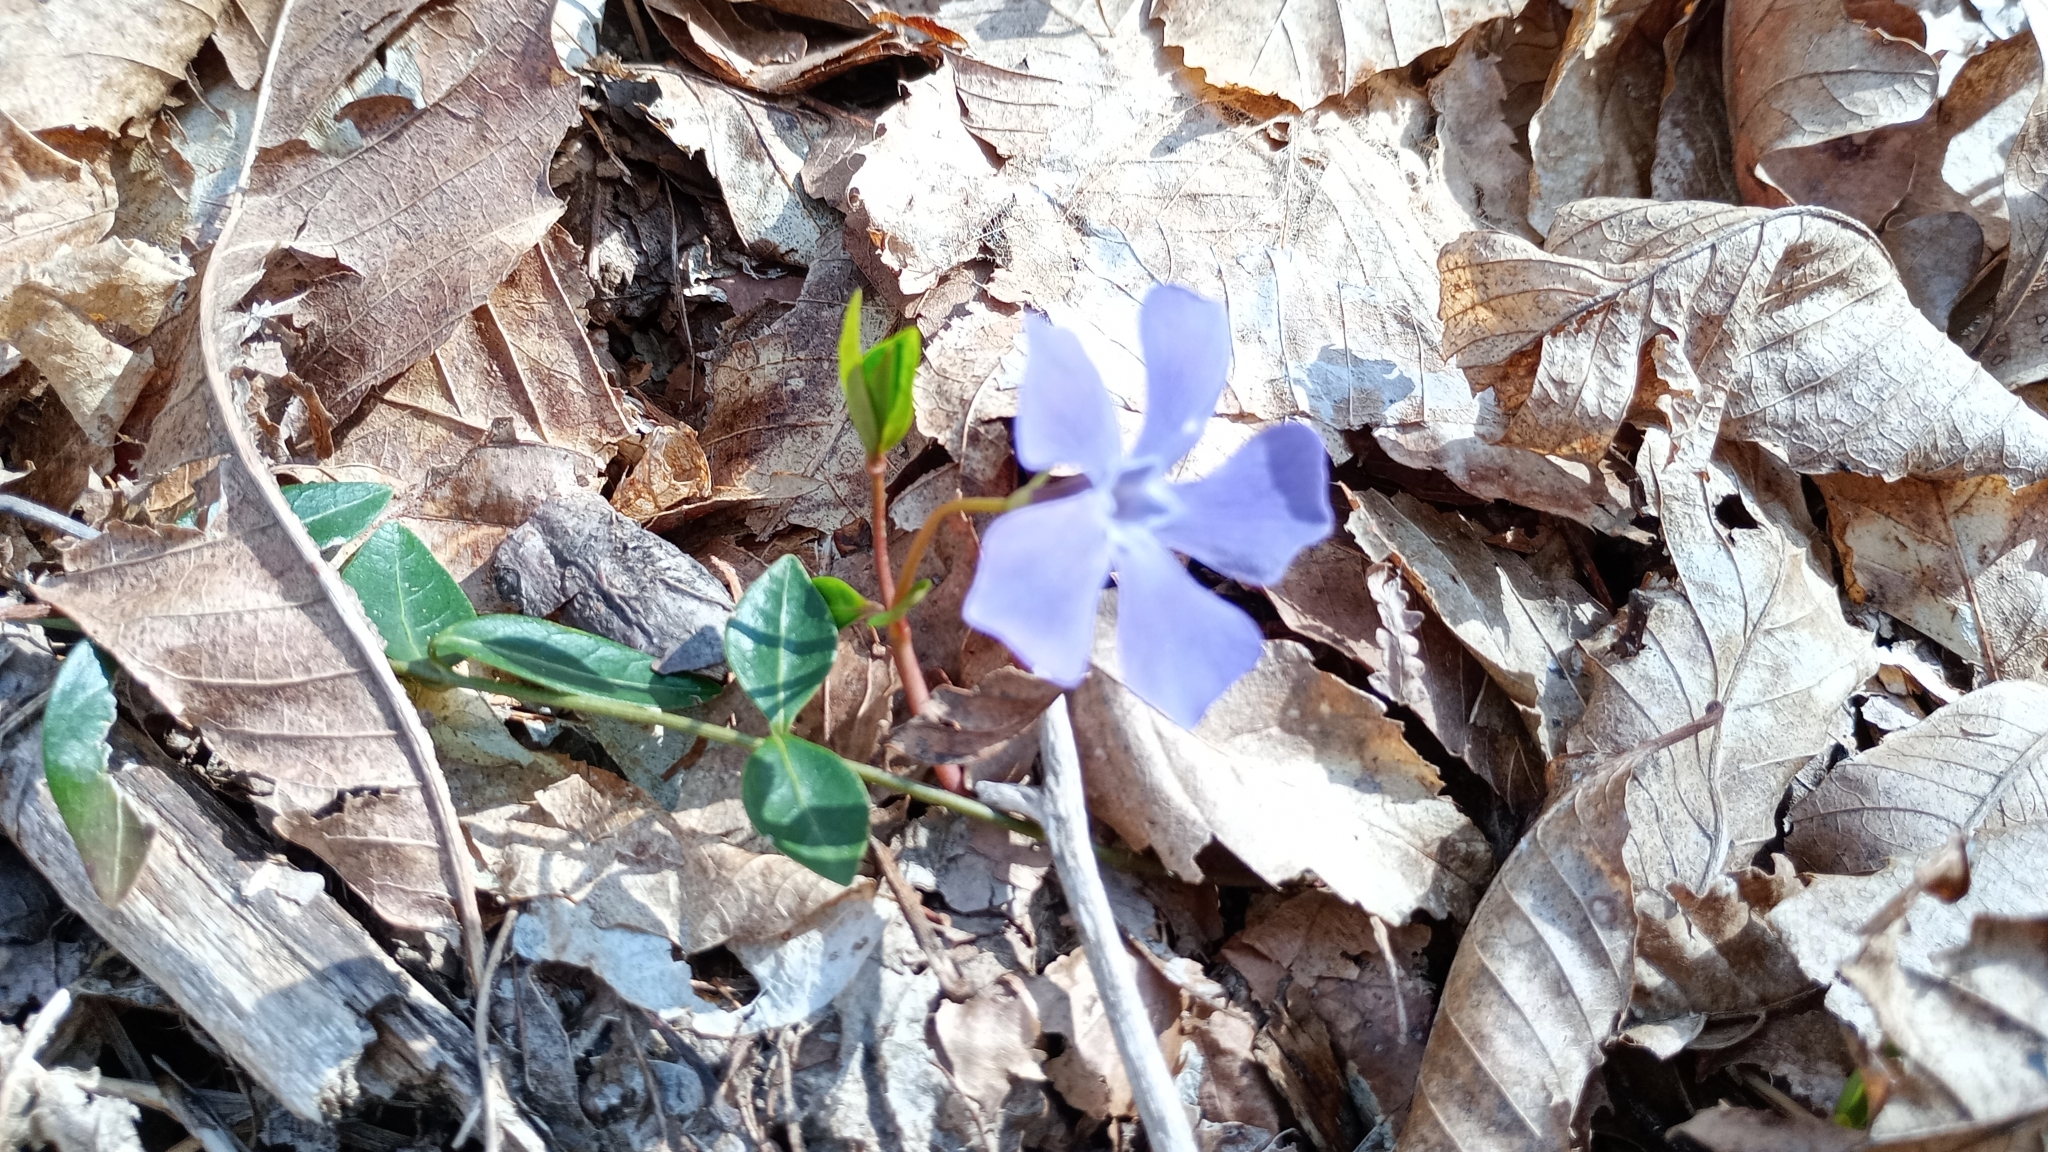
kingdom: Plantae
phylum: Tracheophyta
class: Magnoliopsida
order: Gentianales
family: Apocynaceae
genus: Vinca
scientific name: Vinca minor
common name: Lesser periwinkle
